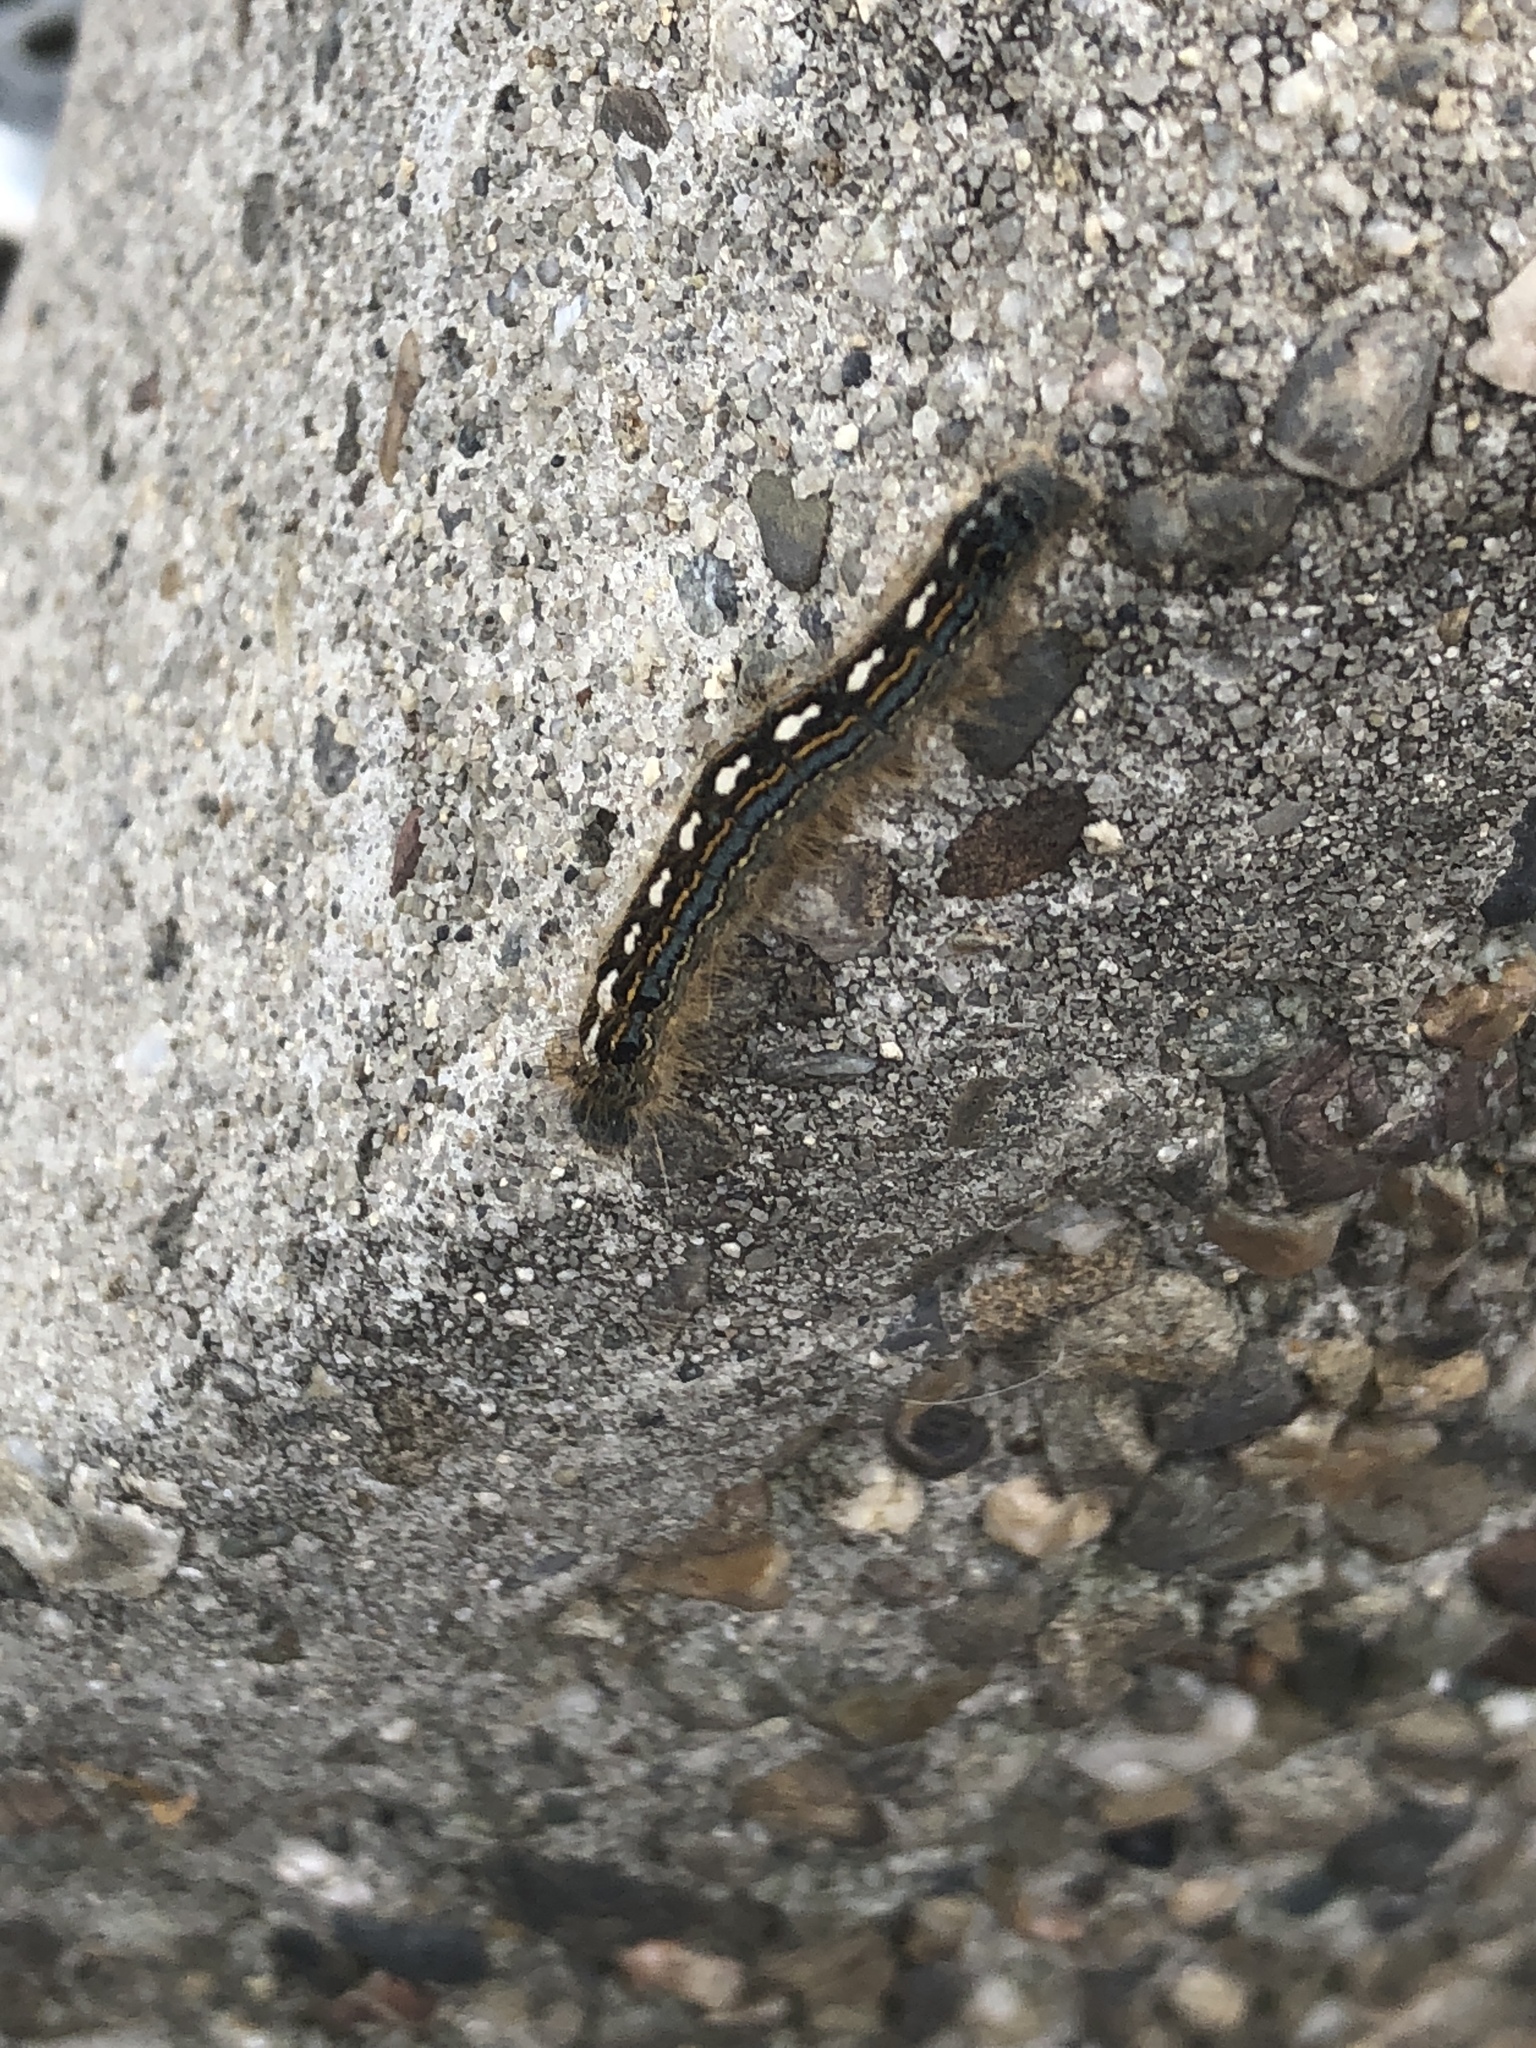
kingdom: Animalia
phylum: Arthropoda
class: Insecta
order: Lepidoptera
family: Lasiocampidae
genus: Malacosoma
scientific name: Malacosoma disstria
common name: Forest tent caterpillar
